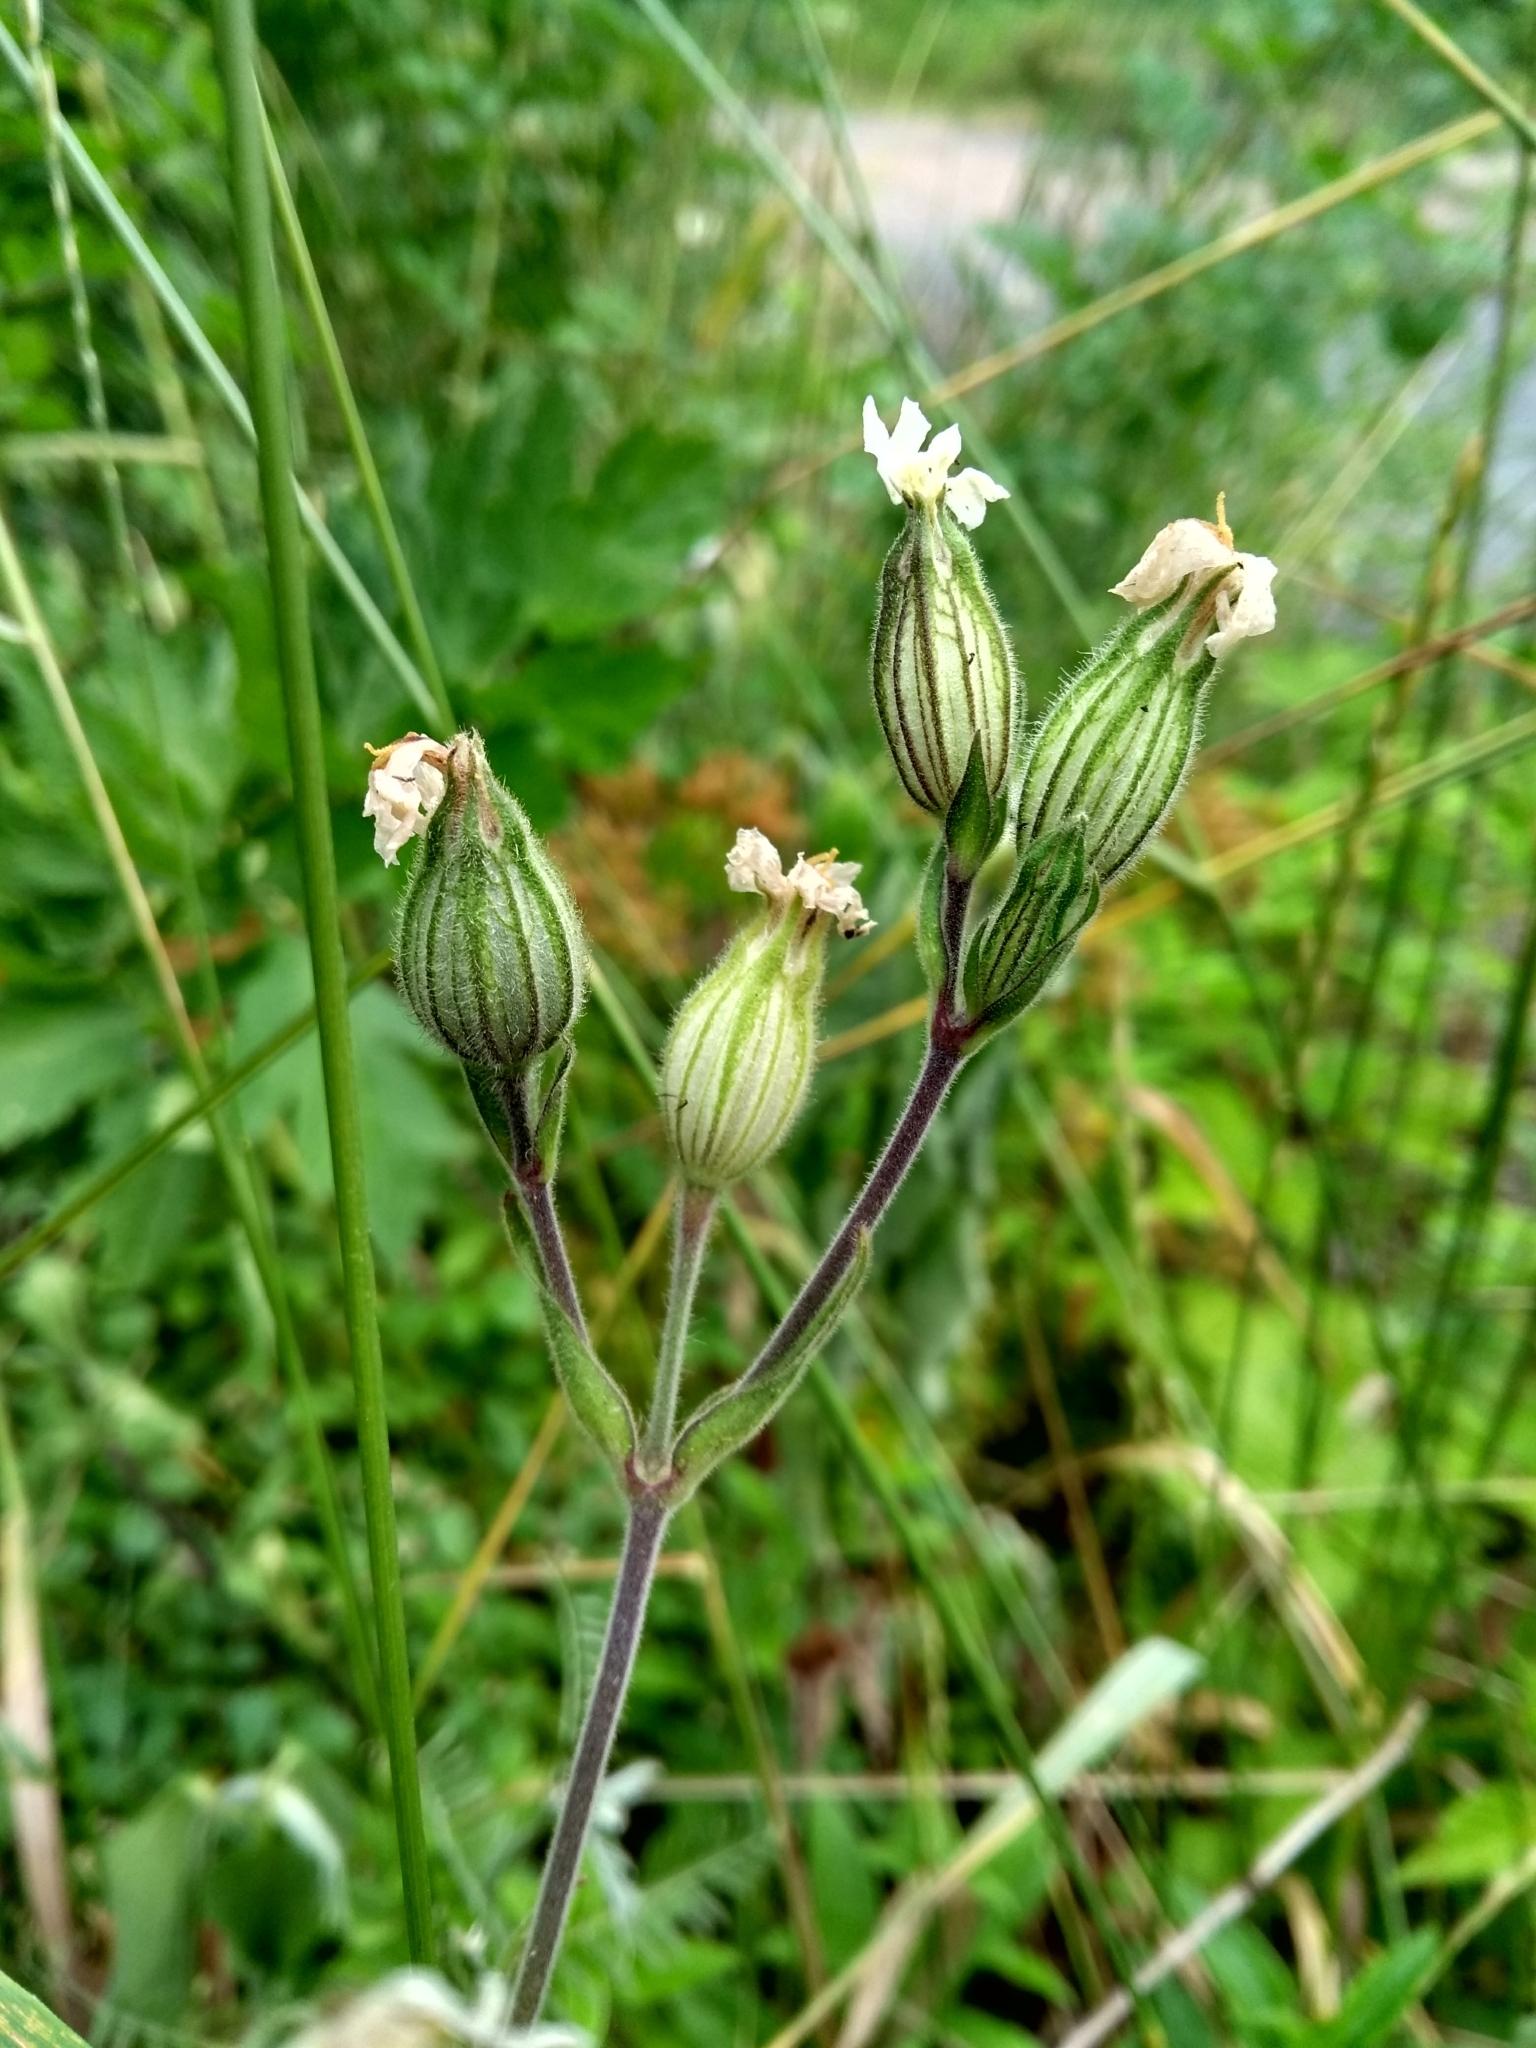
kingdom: Plantae
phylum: Tracheophyta
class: Magnoliopsida
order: Caryophyllales
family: Caryophyllaceae
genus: Silene
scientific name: Silene latifolia
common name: White campion
